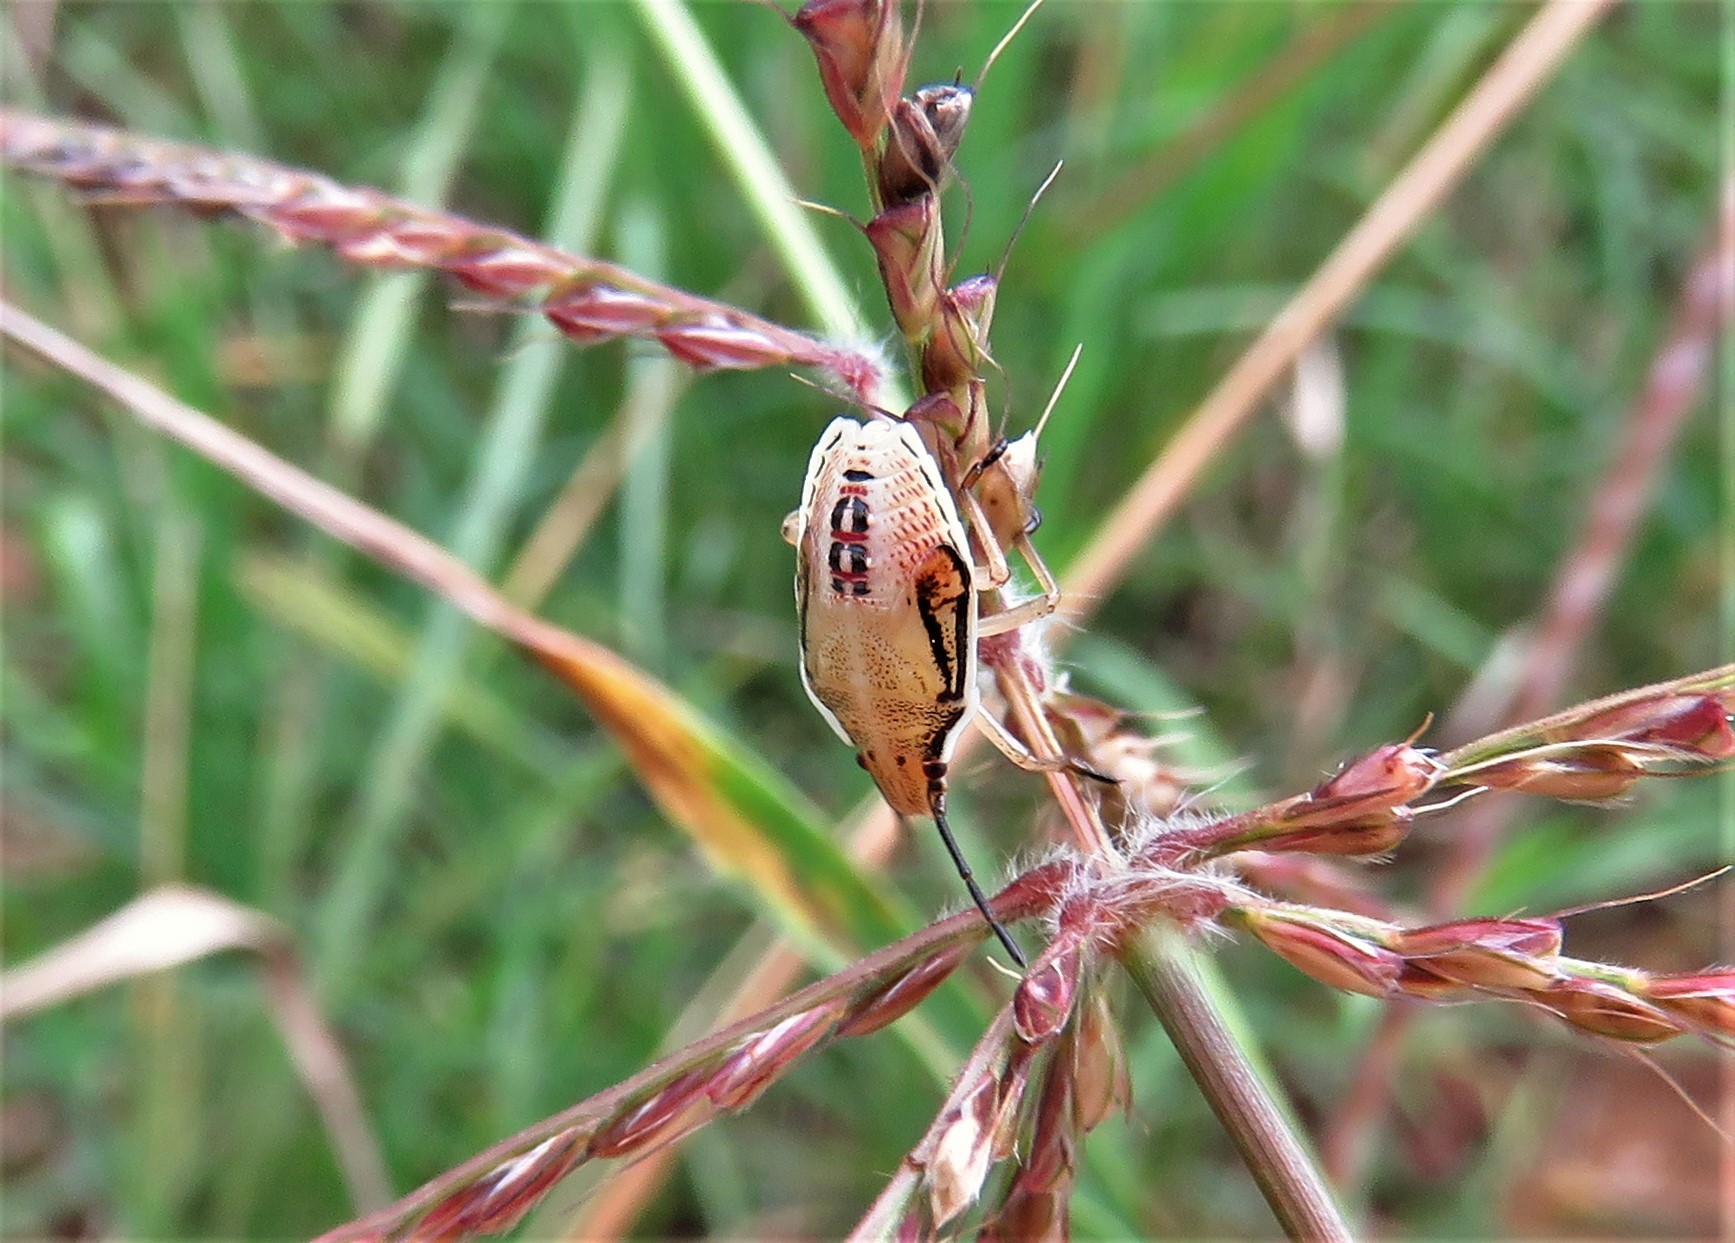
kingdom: Animalia
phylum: Arthropoda
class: Insecta
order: Hemiptera
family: Pentatomidae
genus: Oebalus
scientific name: Oebalus pugnax
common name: Rice stink bug
